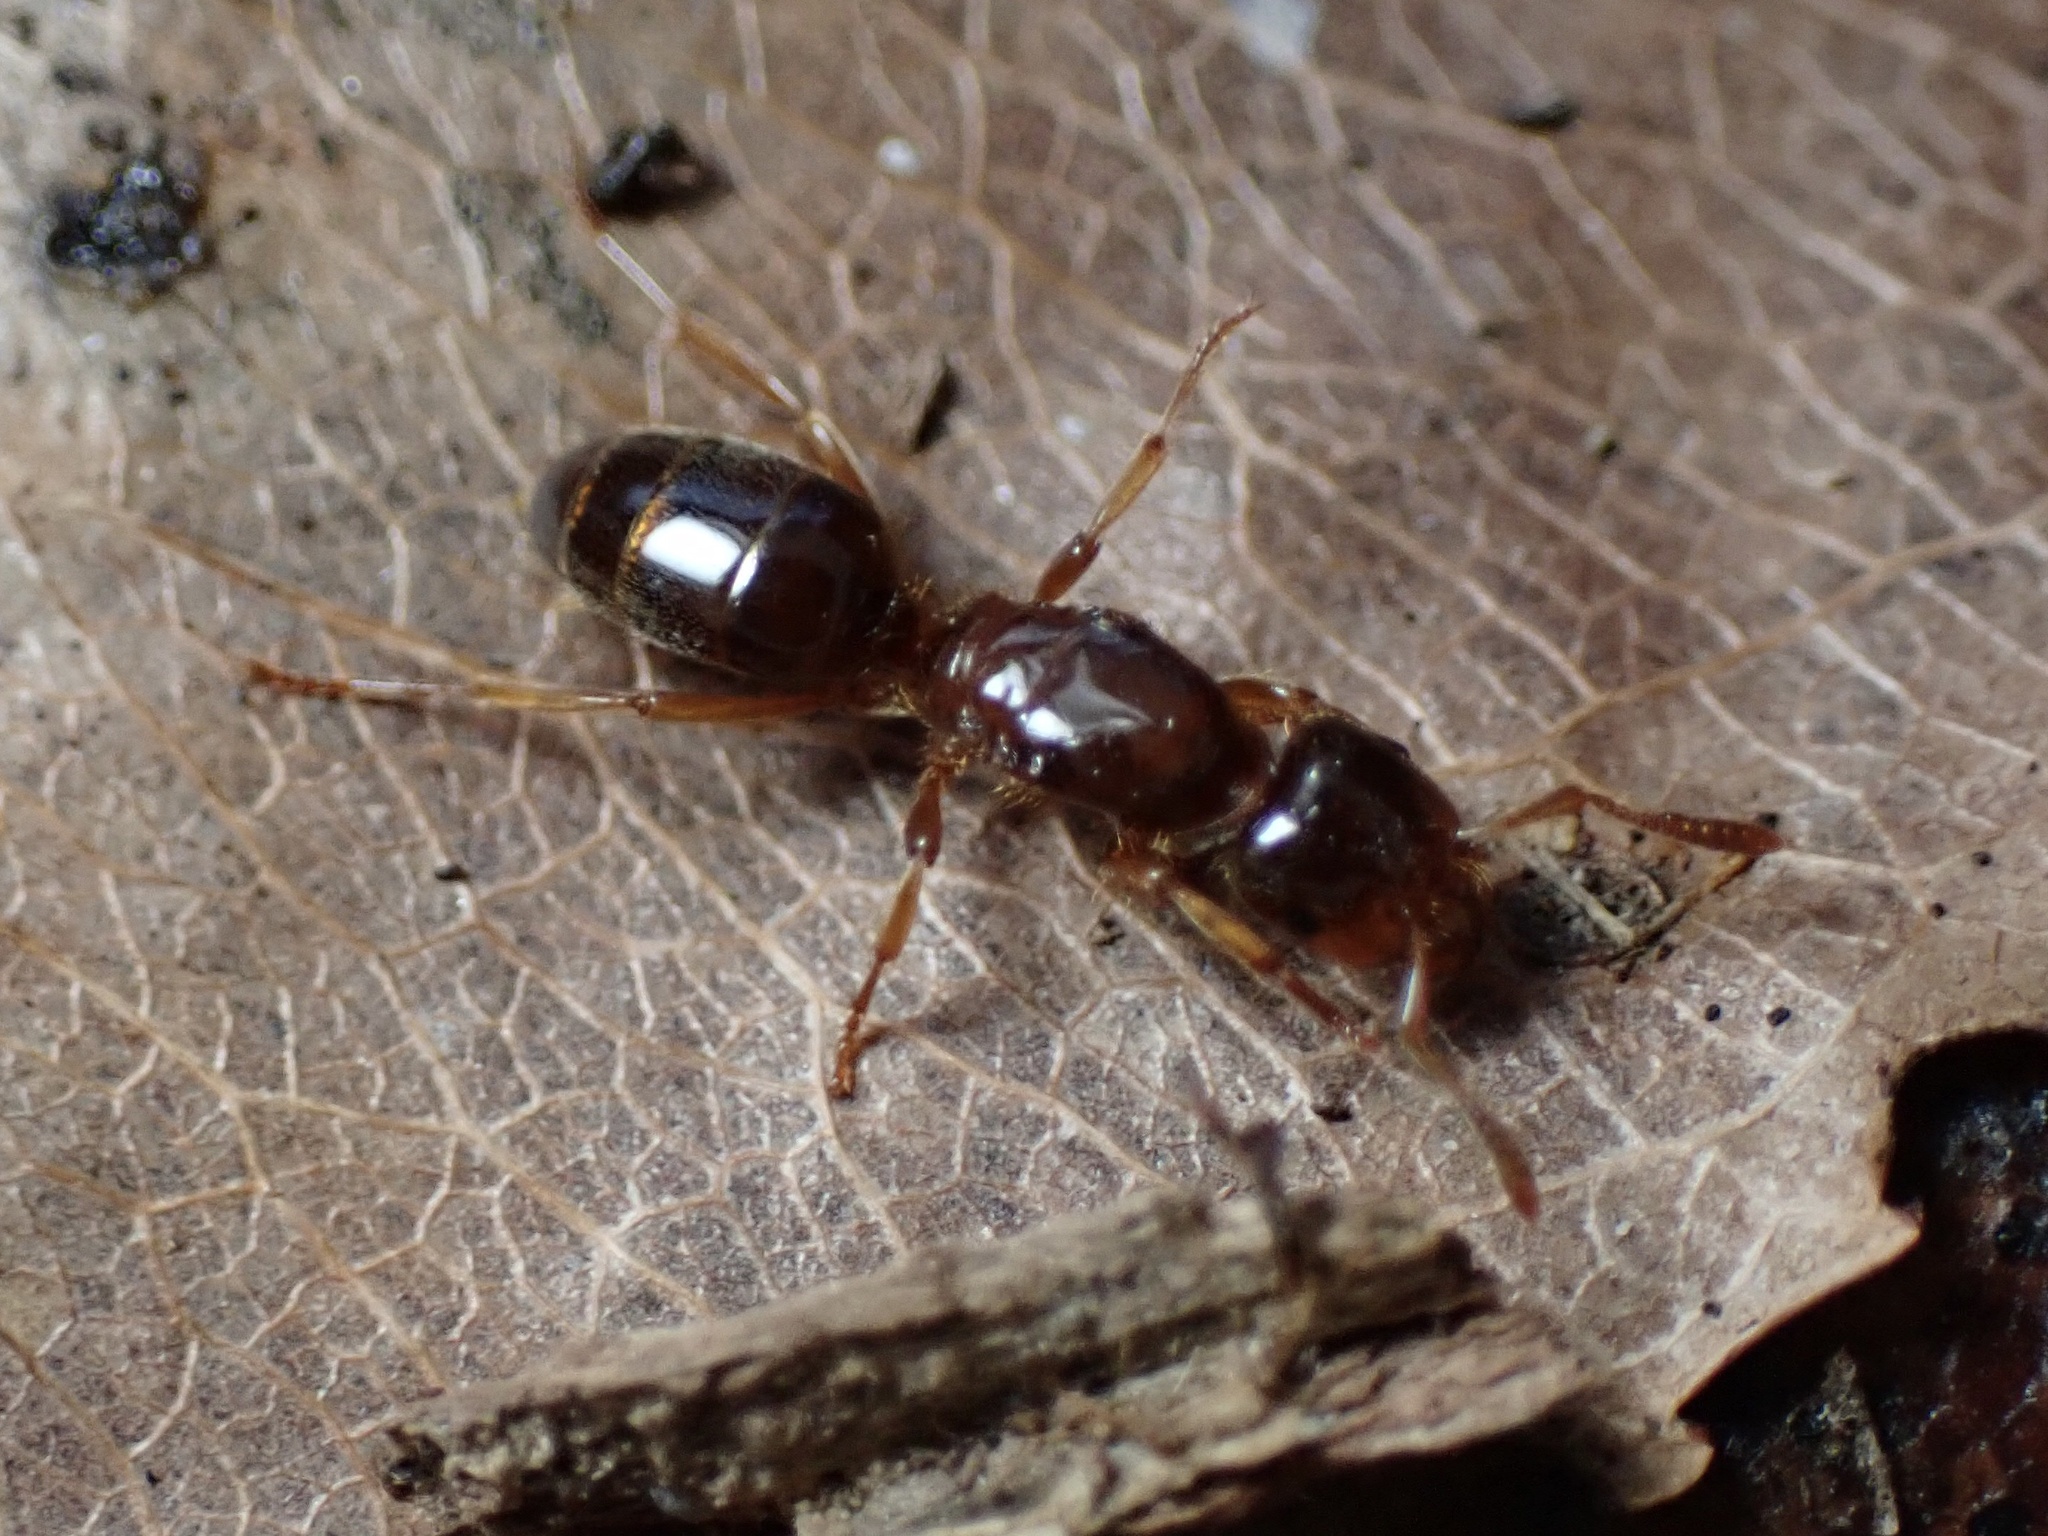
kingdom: Animalia
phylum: Arthropoda
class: Insecta
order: Hymenoptera
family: Formicidae
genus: Lasius
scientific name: Lasius claviger
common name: Common citronella ant
